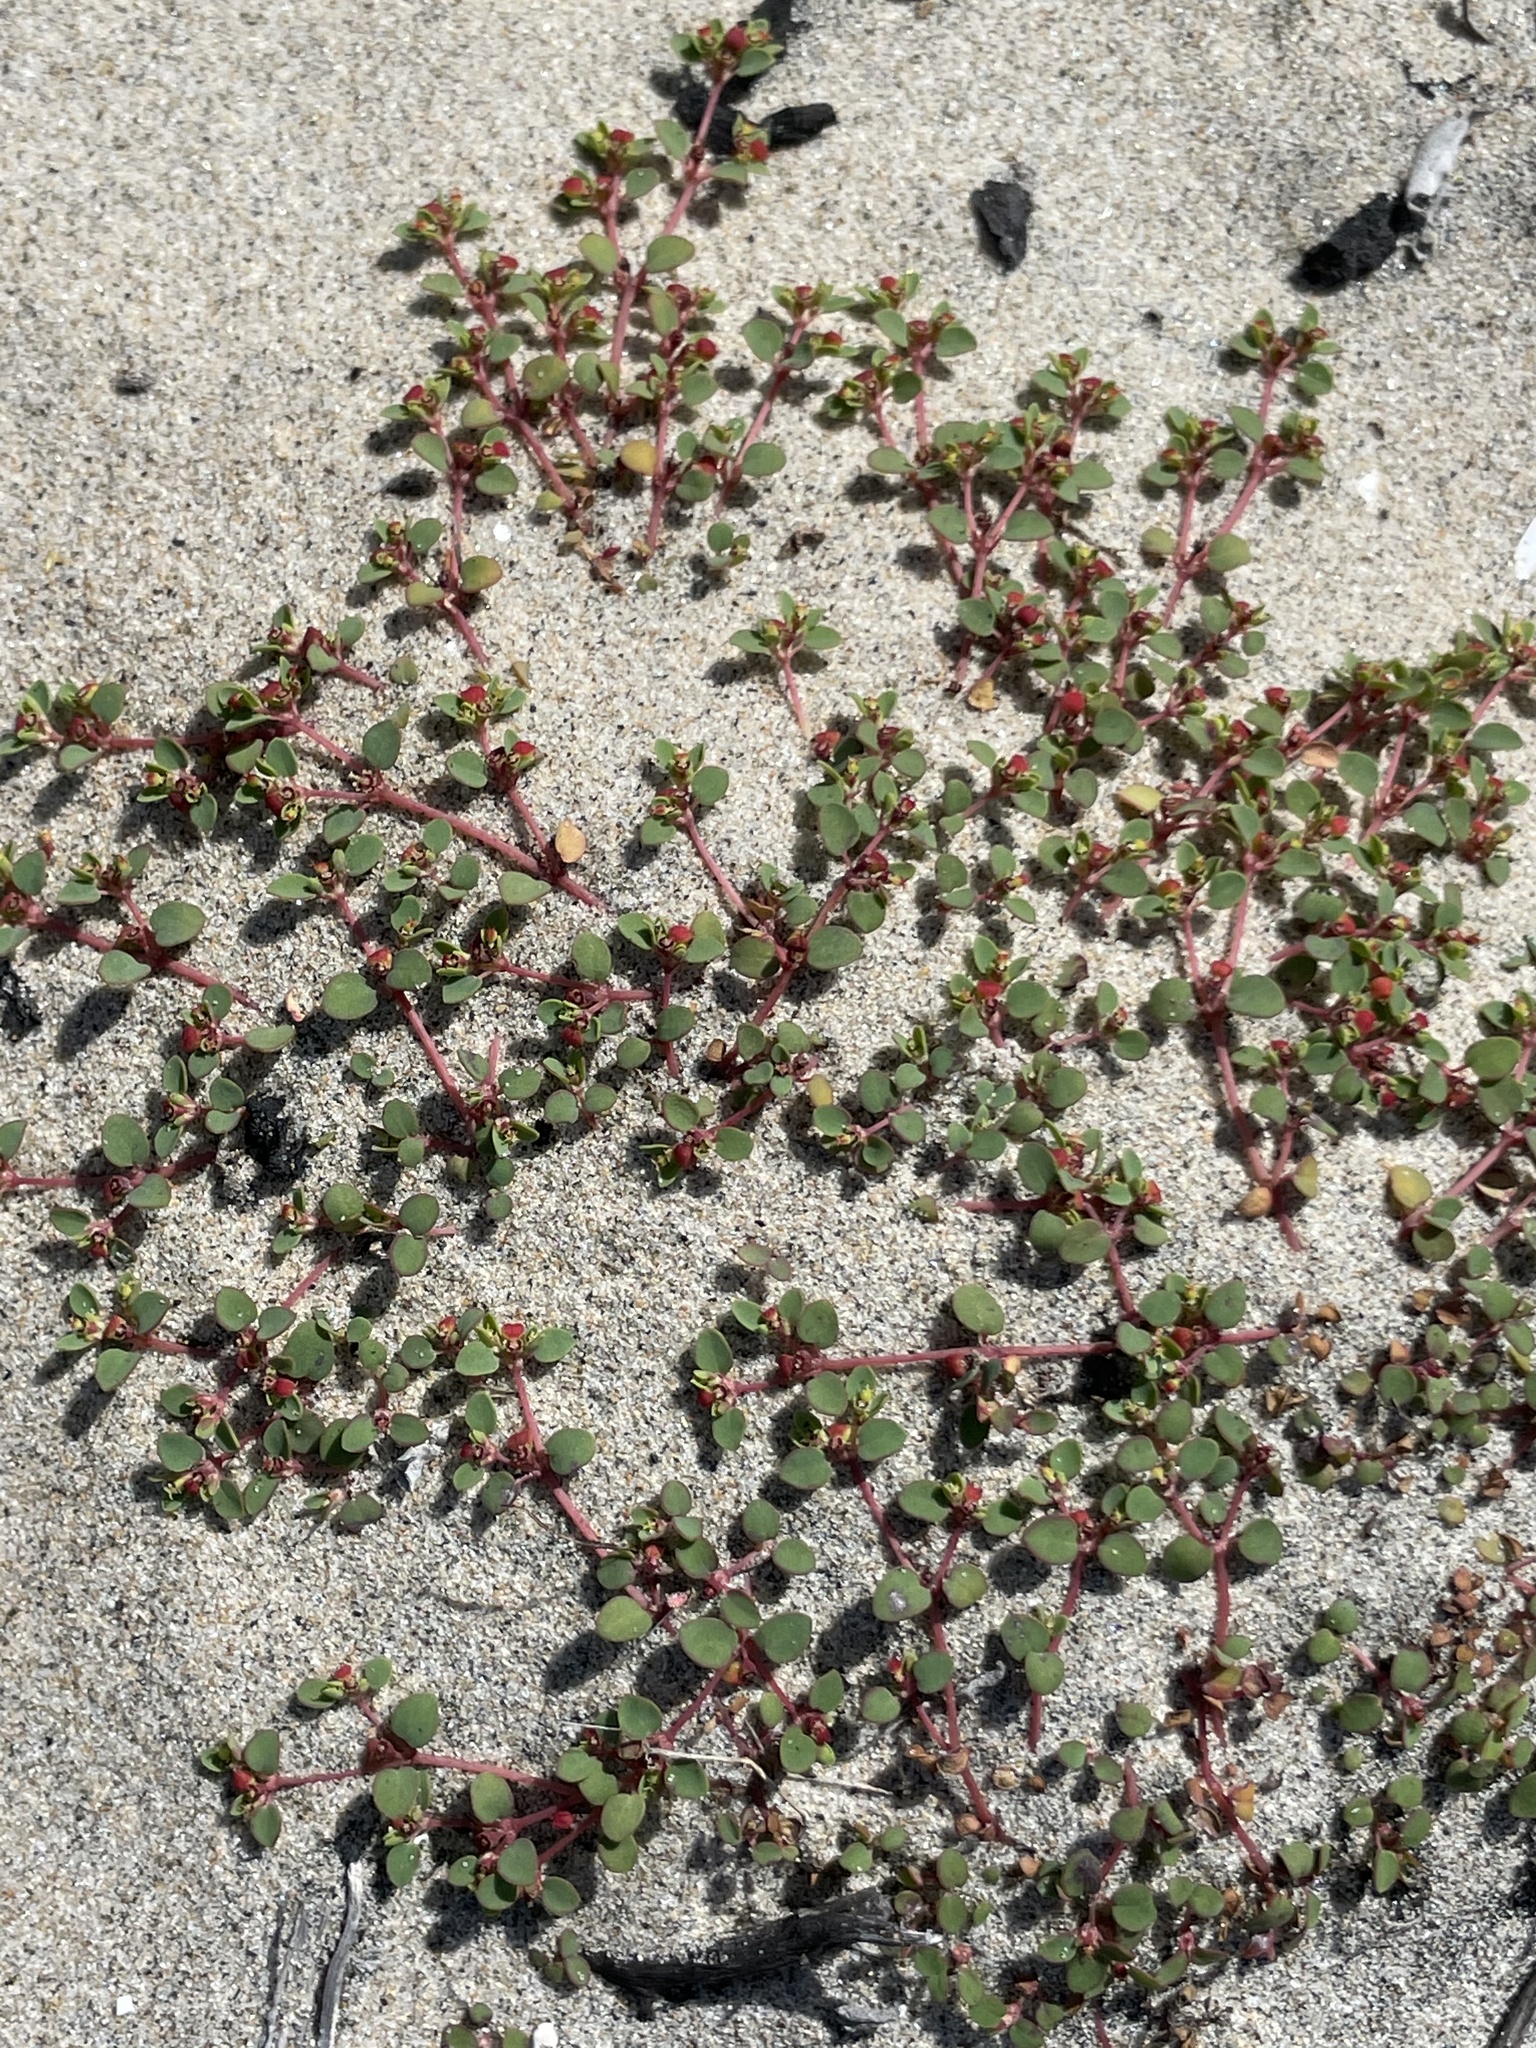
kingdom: Plantae
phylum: Tracheophyta
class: Magnoliopsida
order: Malpighiales
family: Euphorbiaceae
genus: Euphorbia
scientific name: Euphorbia pondii
